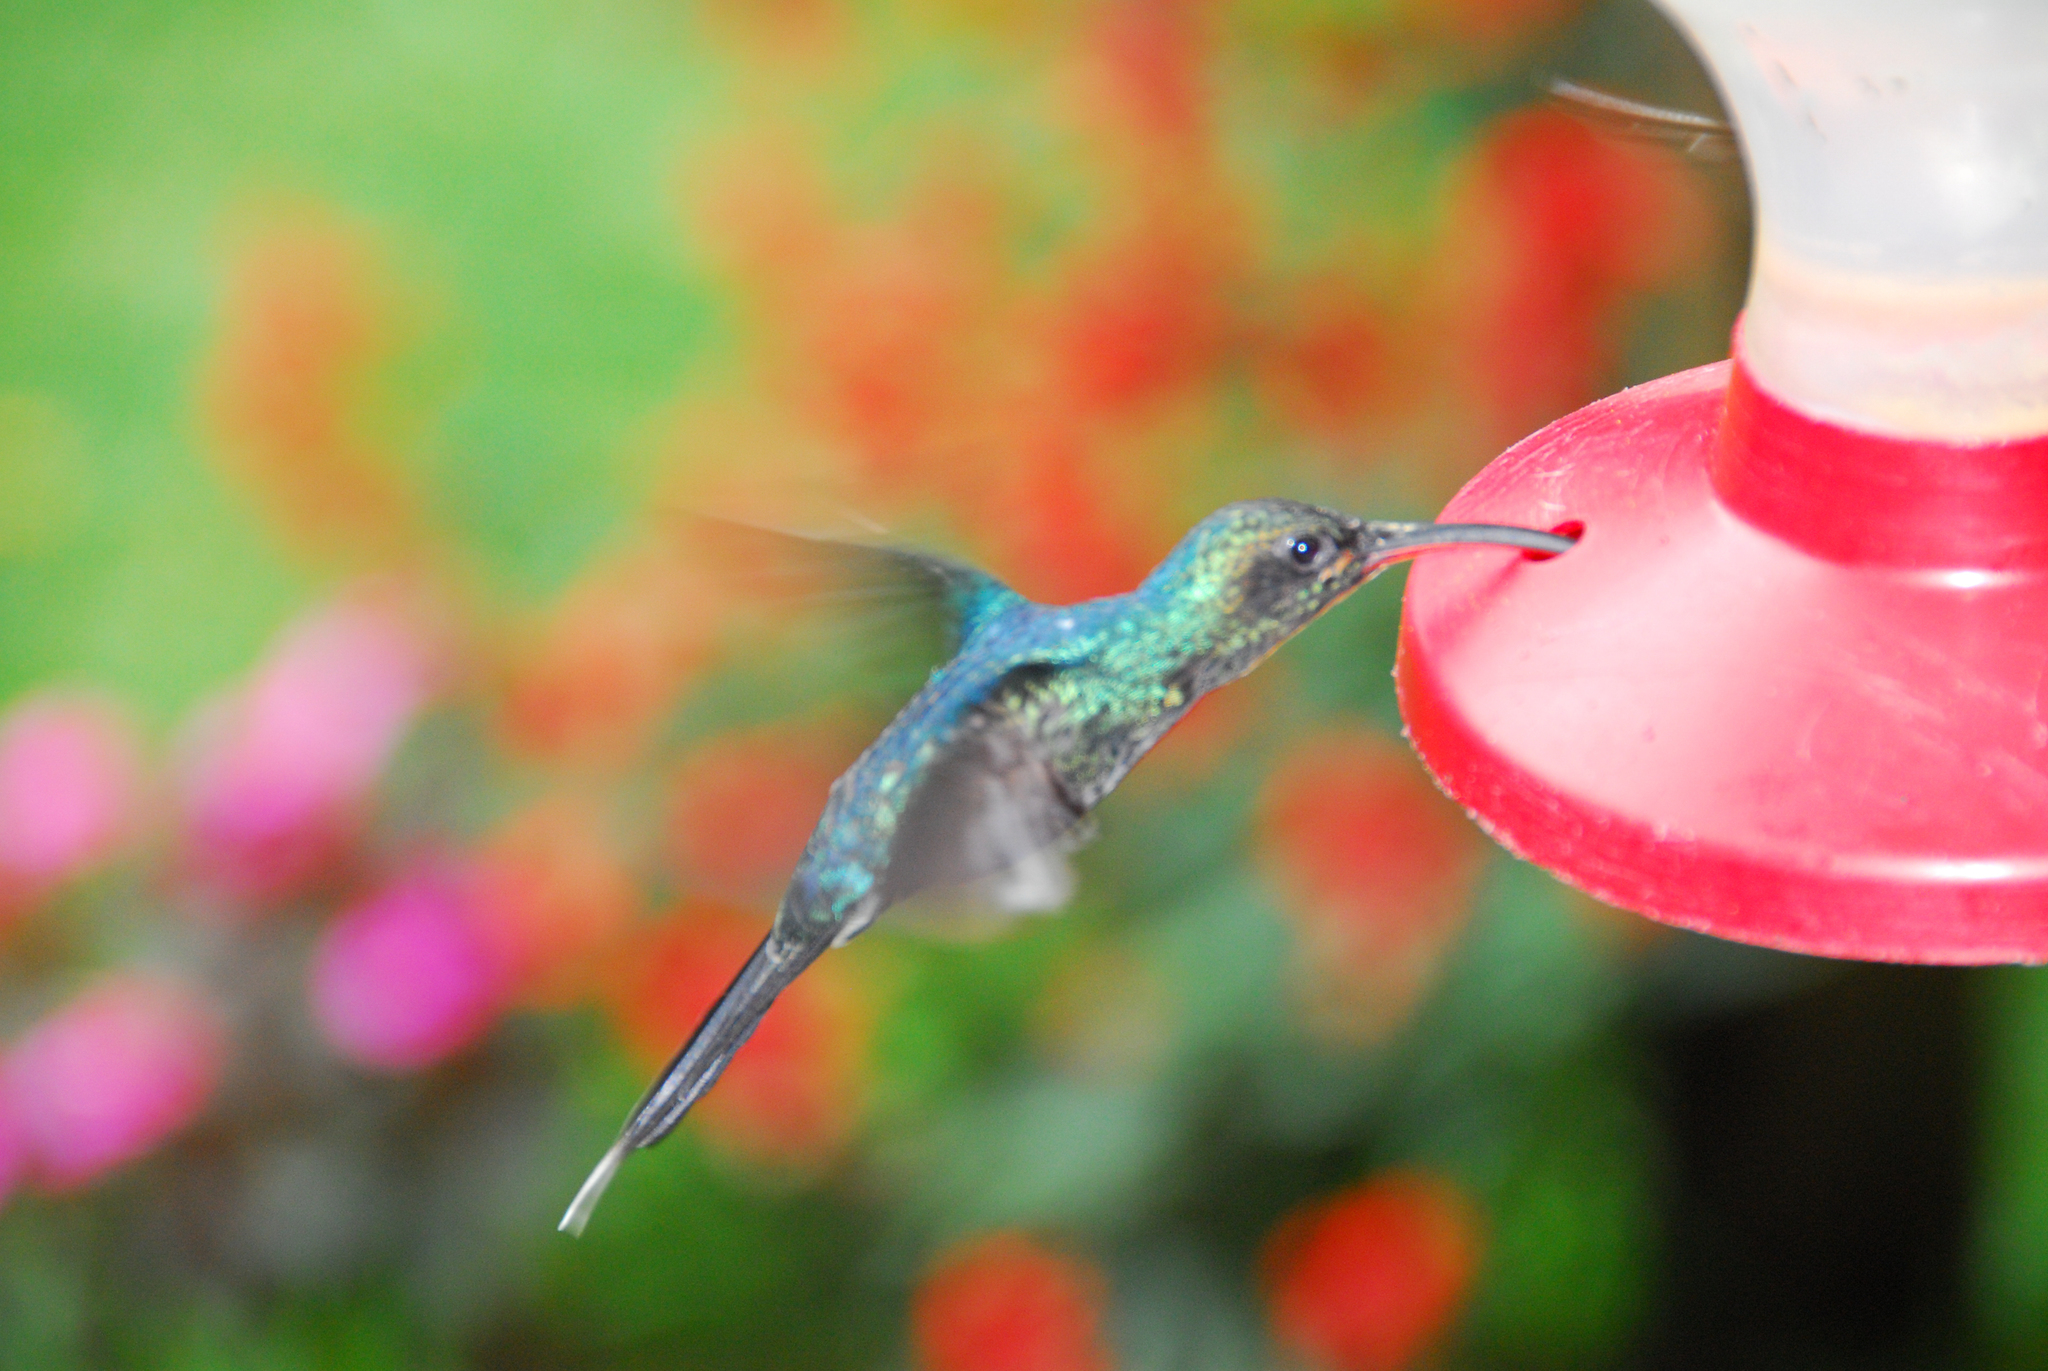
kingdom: Animalia
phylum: Chordata
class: Aves
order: Apodiformes
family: Trochilidae
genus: Phaethornis
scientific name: Phaethornis guy
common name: Green hermit
